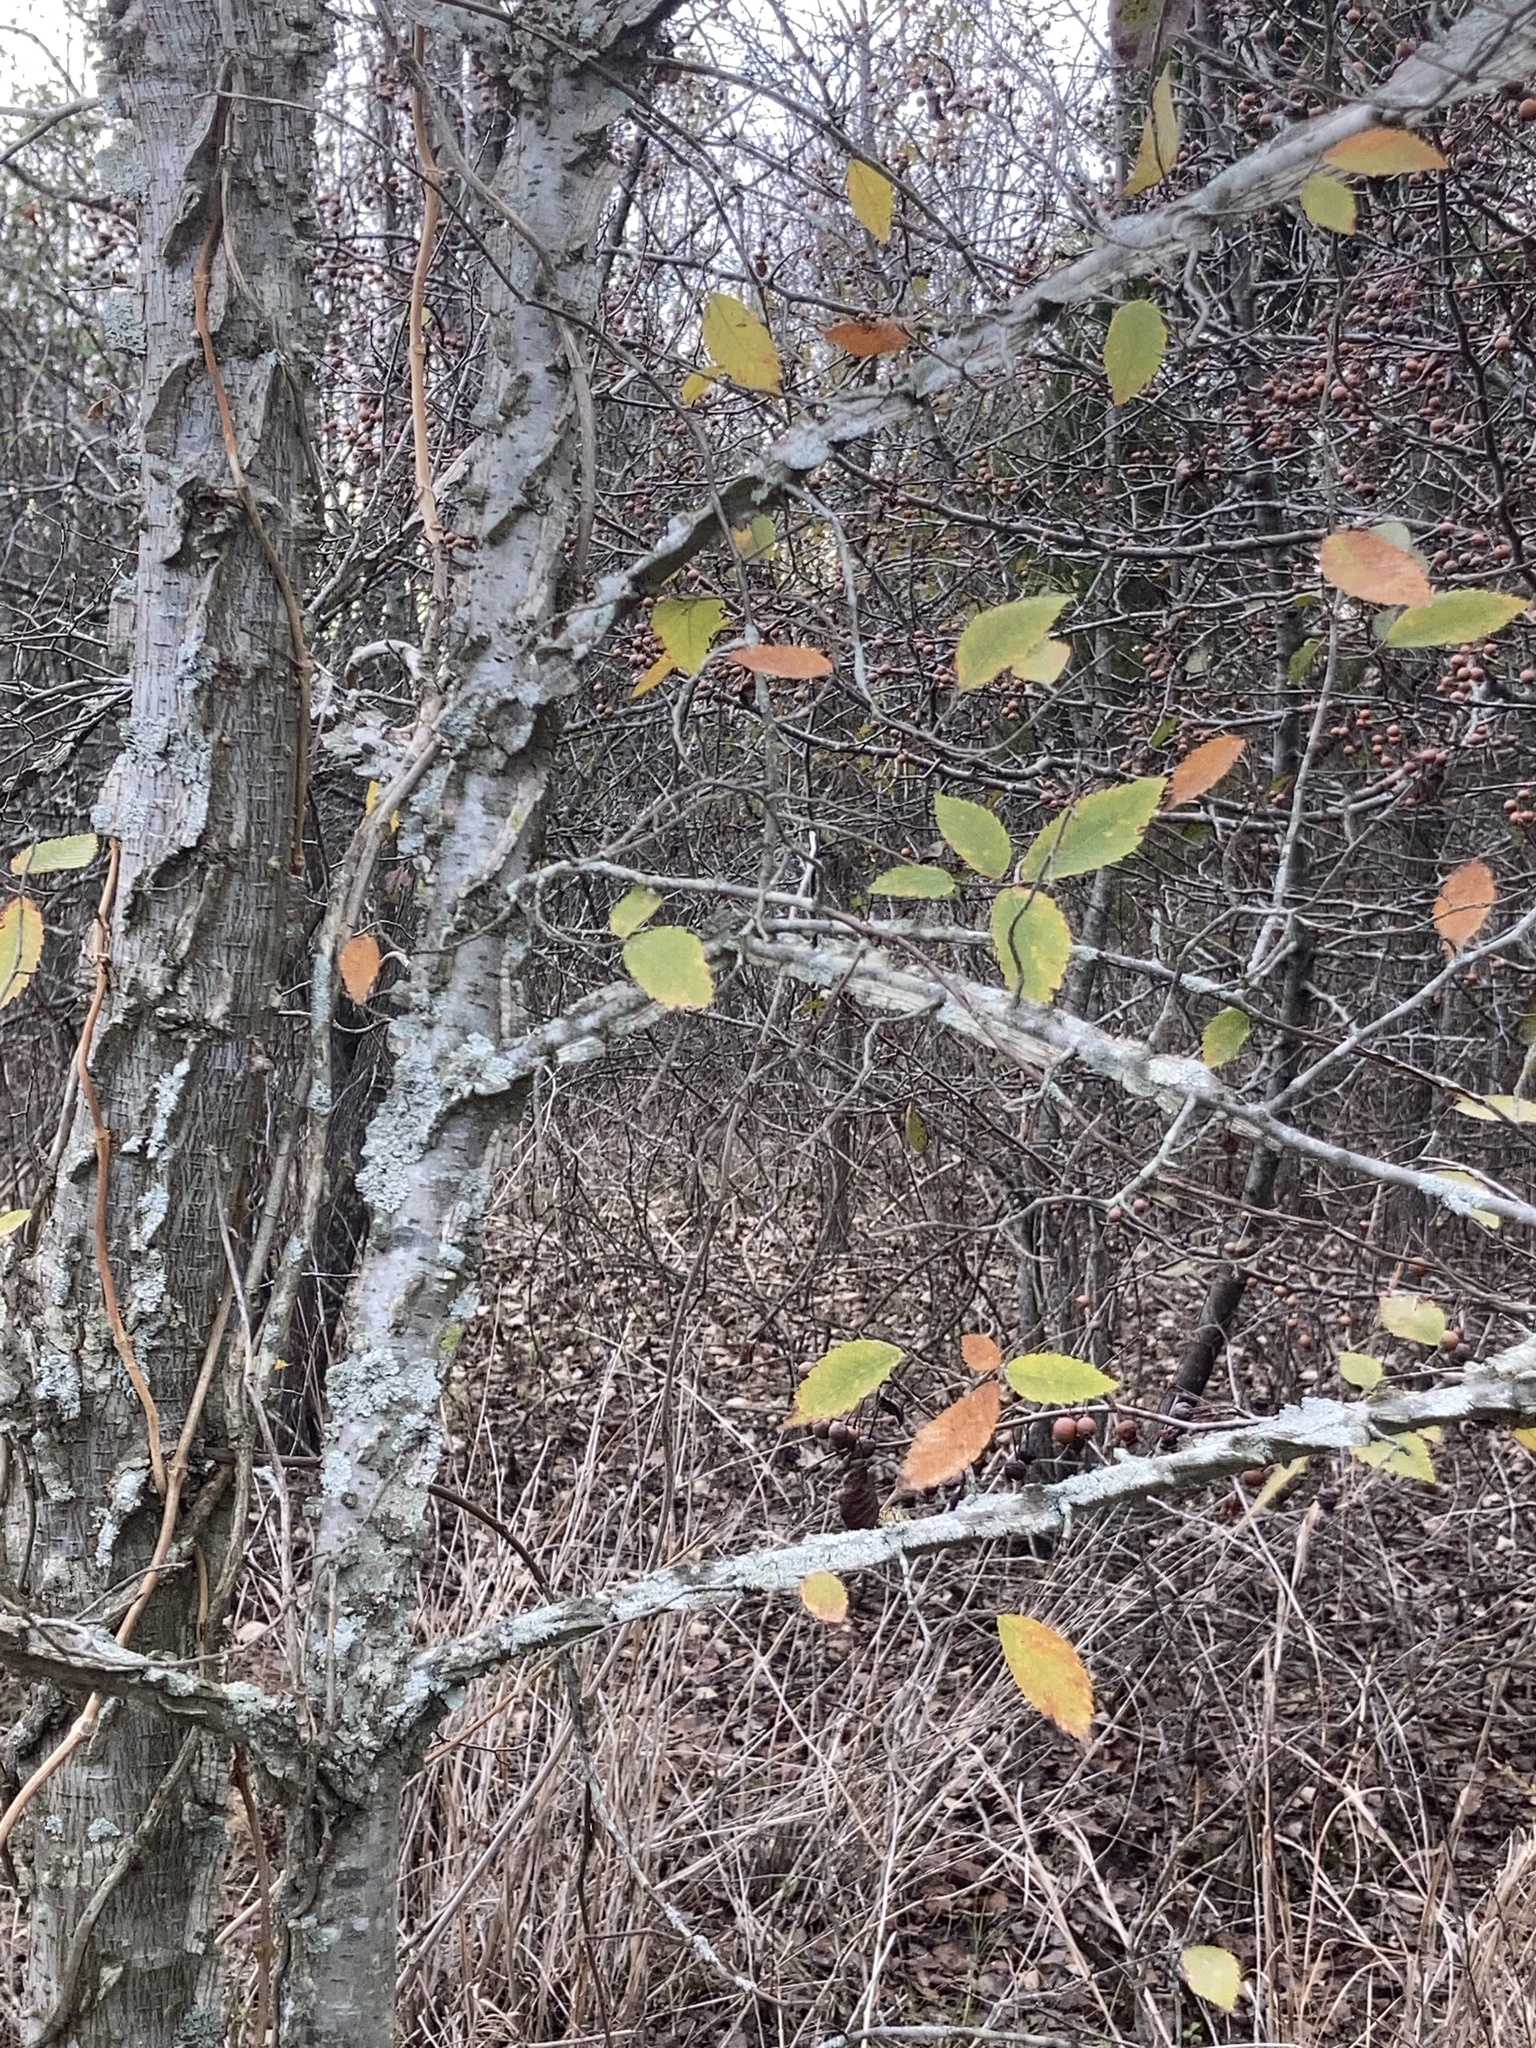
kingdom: Plantae
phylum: Tracheophyta
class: Magnoliopsida
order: Rosales
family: Ulmaceae
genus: Ulmus
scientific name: Ulmus alata
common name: Winged elm
